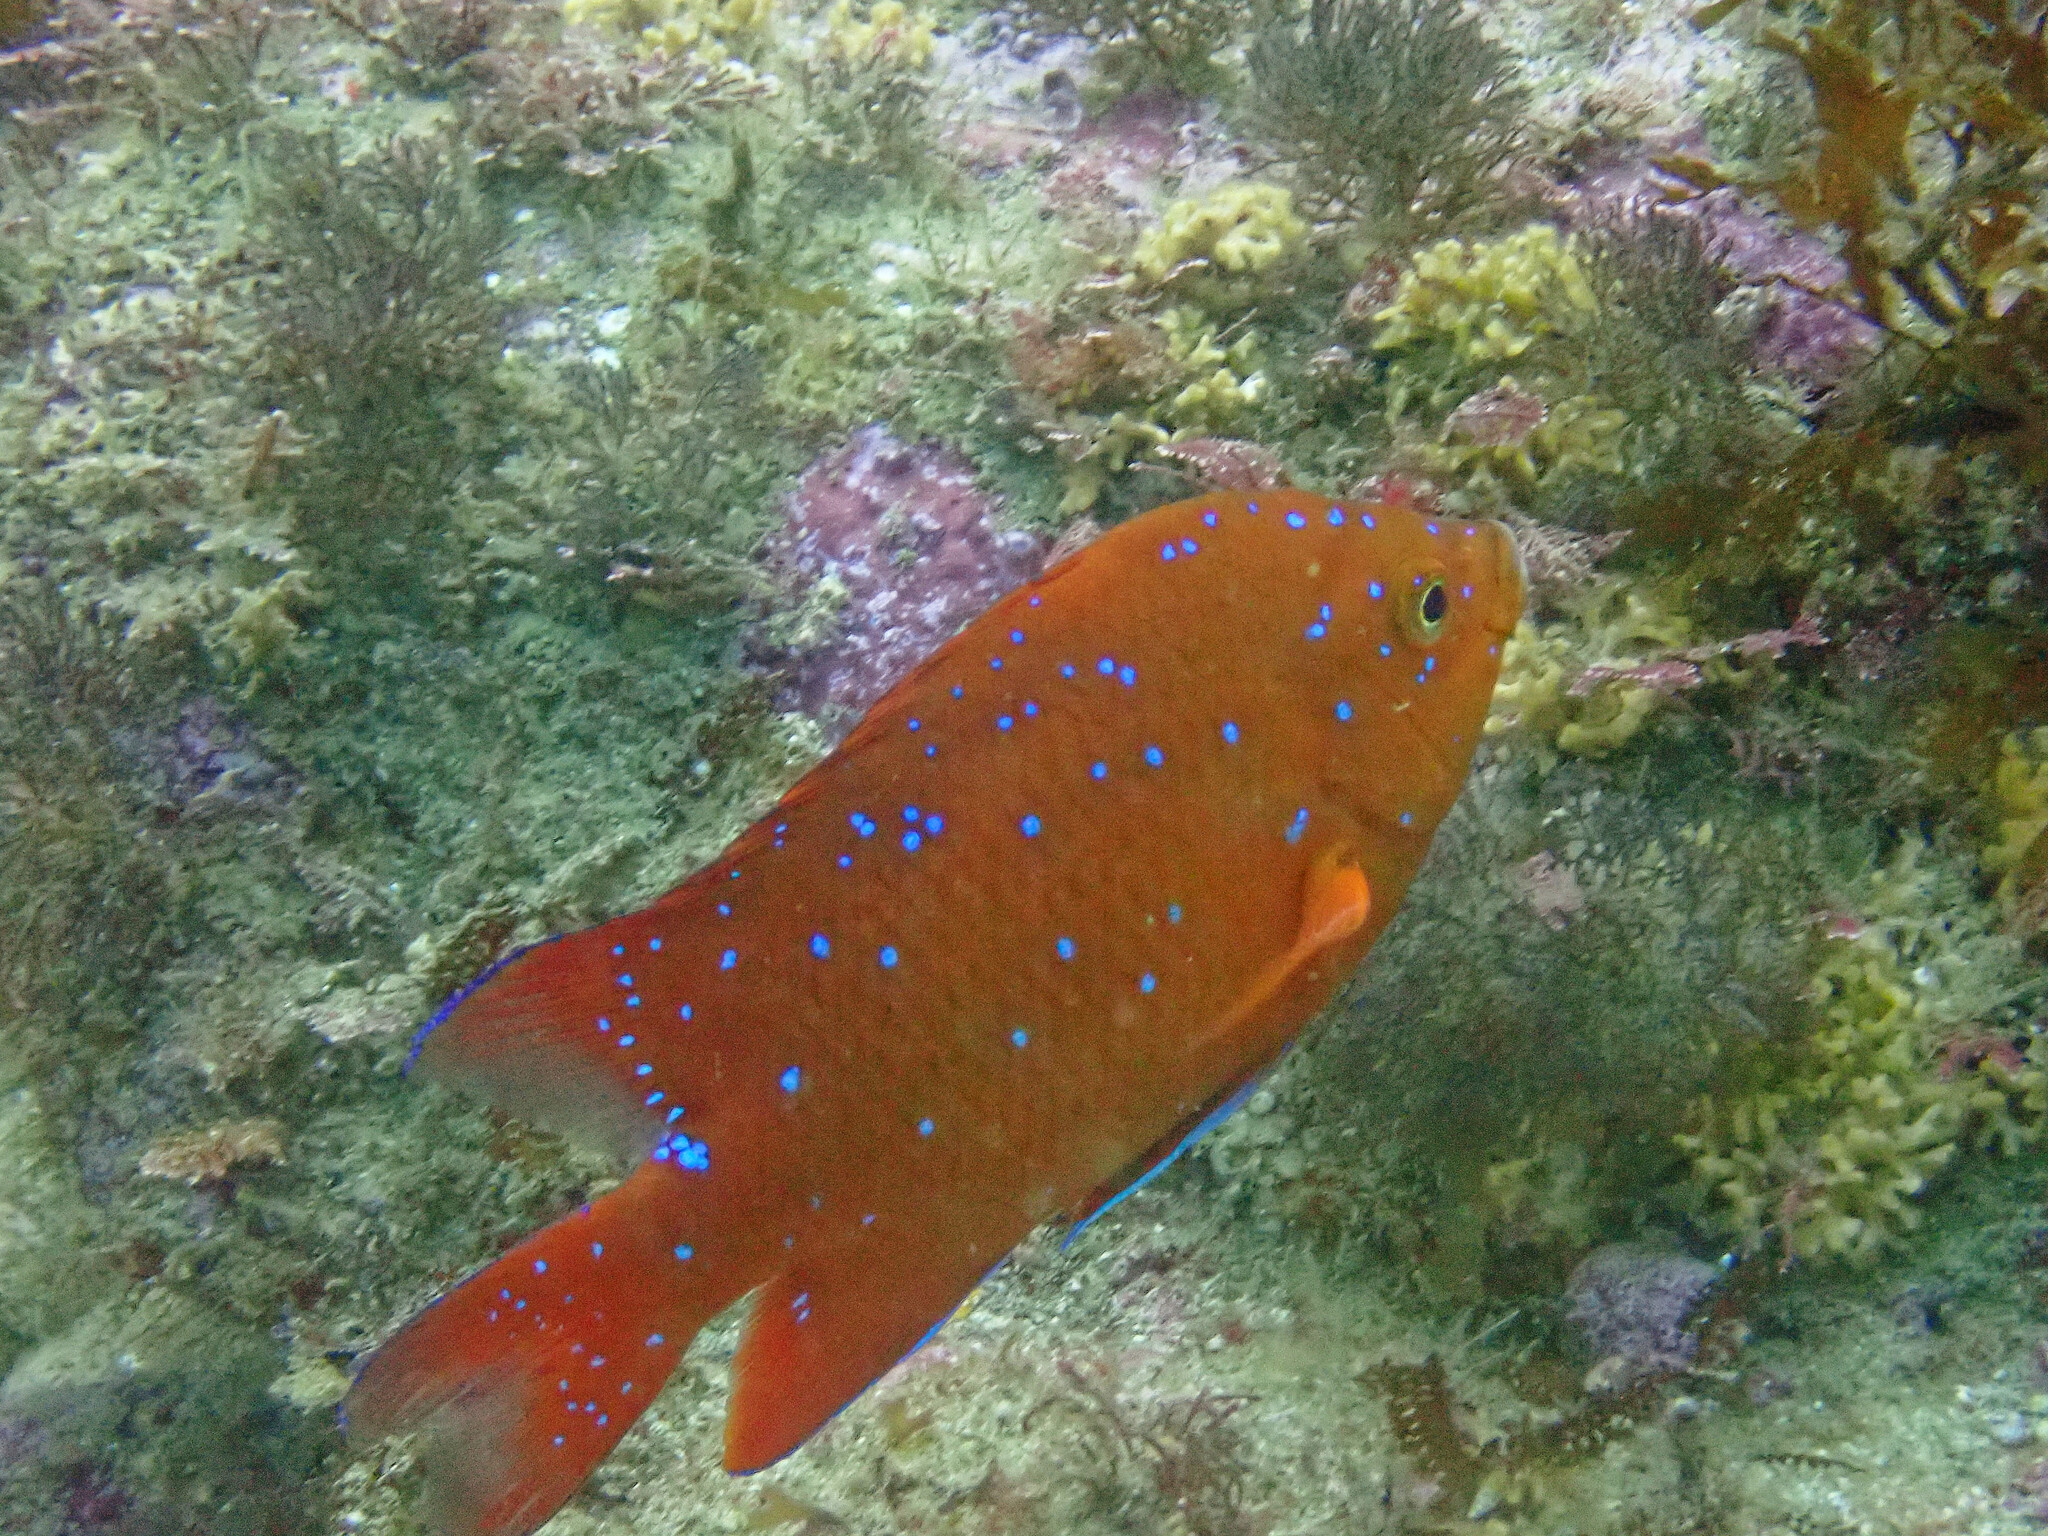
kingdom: Animalia
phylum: Chordata
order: Perciformes
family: Pomacentridae
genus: Hypsypops
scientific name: Hypsypops rubicundus
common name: Garibaldi
